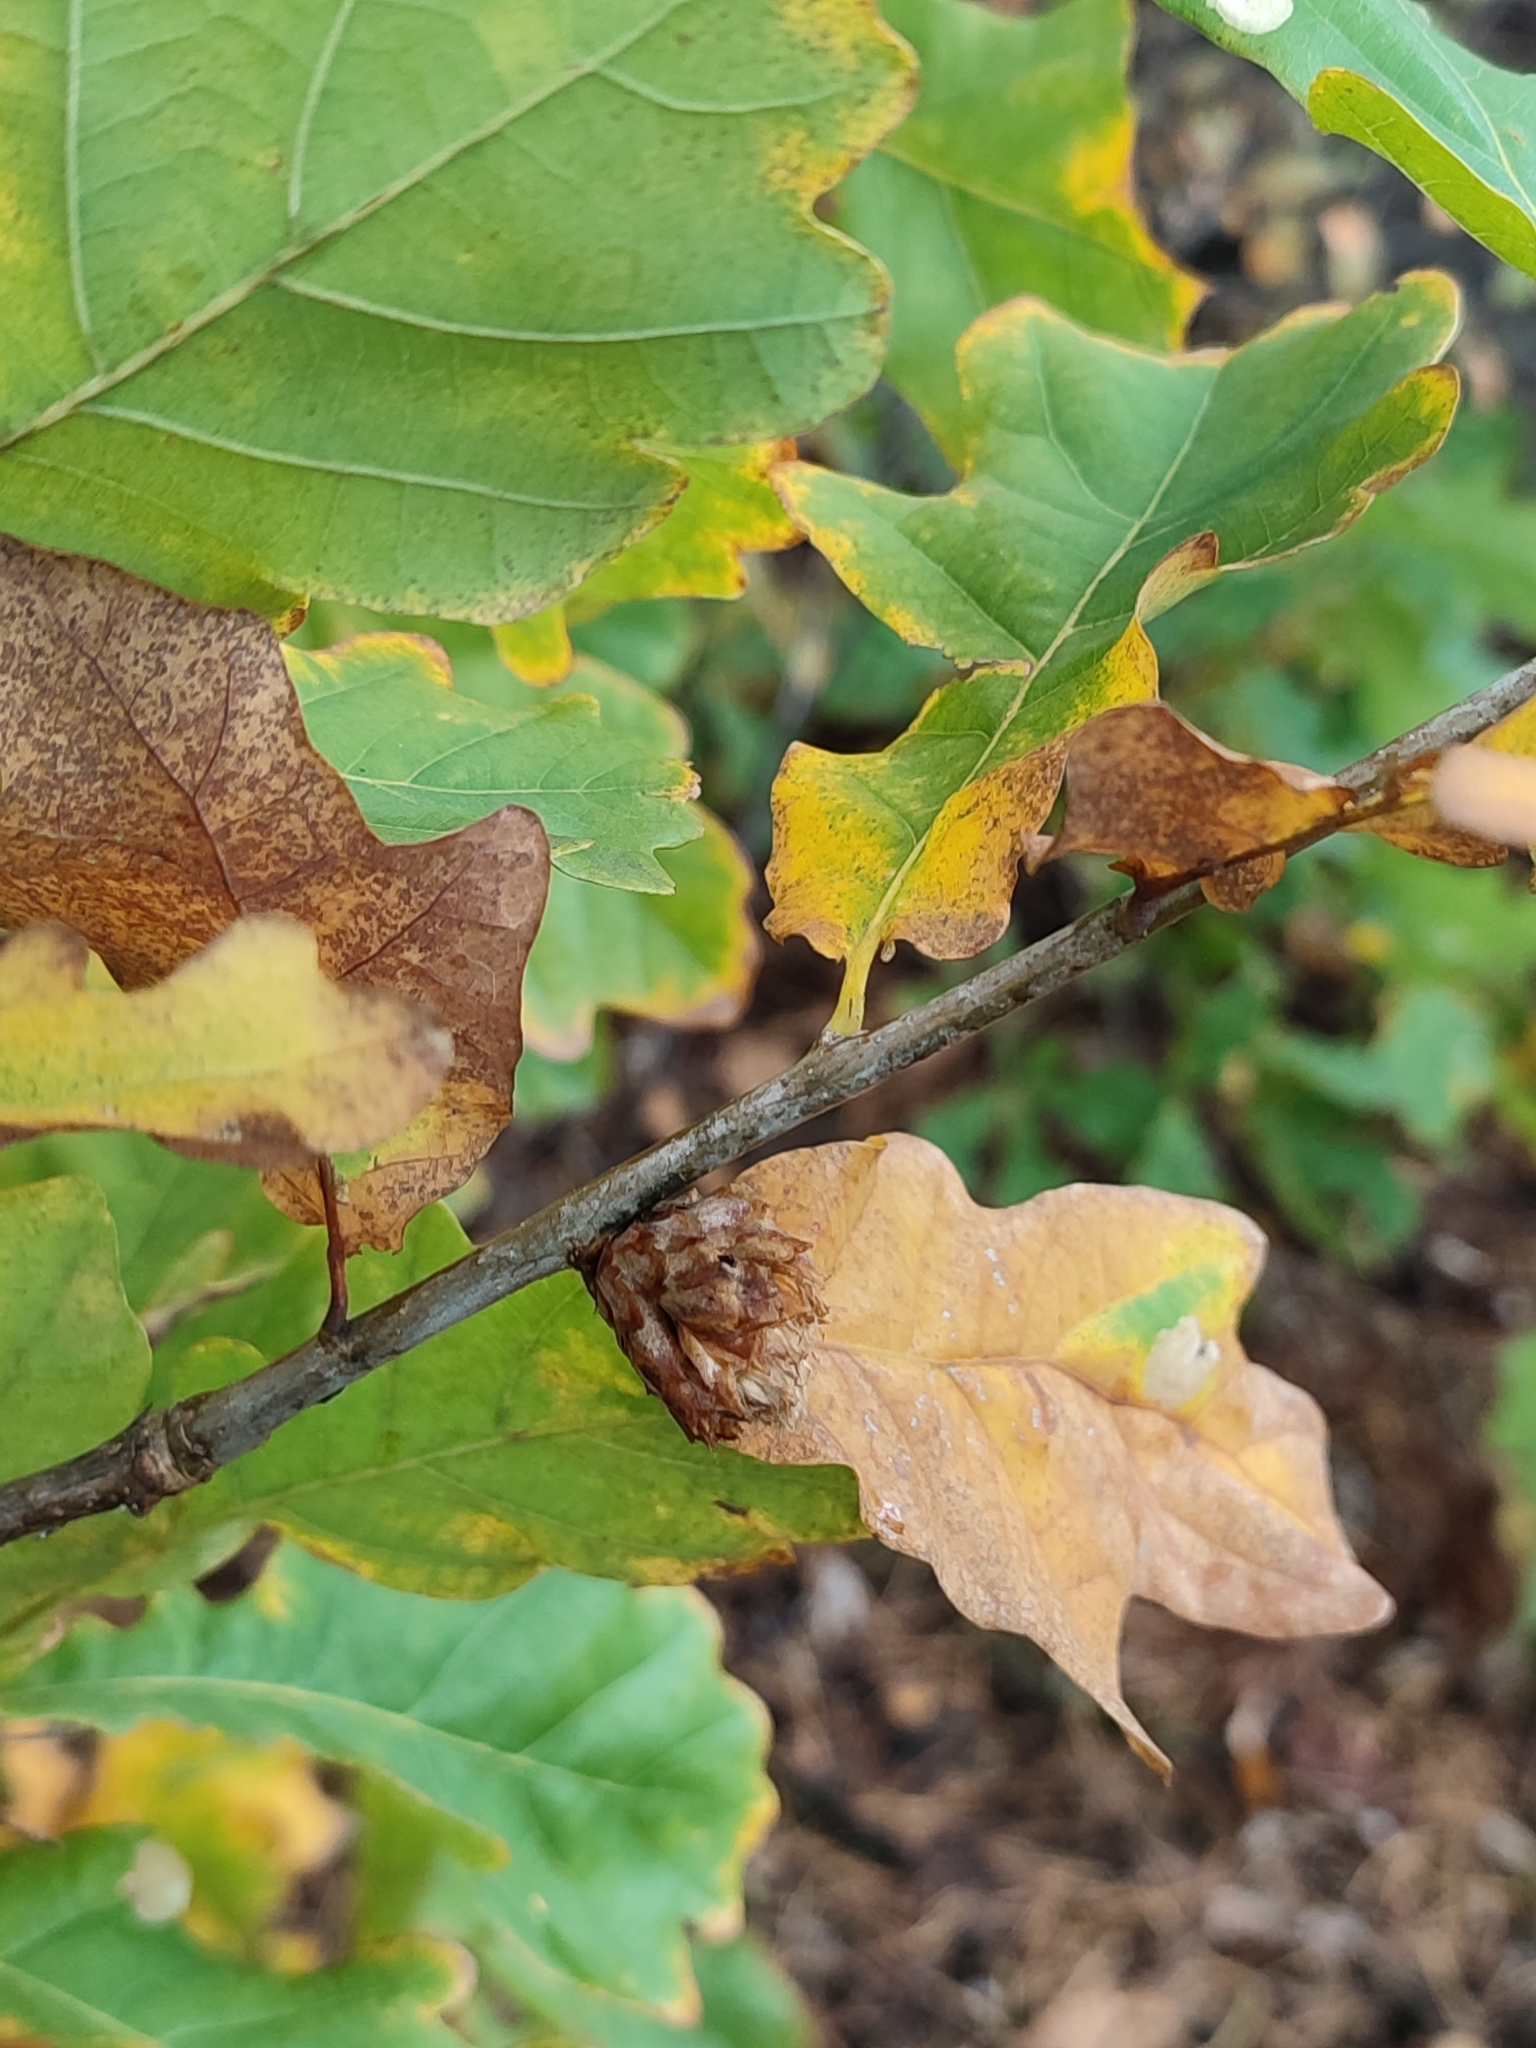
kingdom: Plantae
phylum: Tracheophyta
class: Magnoliopsida
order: Fagales
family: Fagaceae
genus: Quercus
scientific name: Quercus robur
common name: Pedunculate oak
